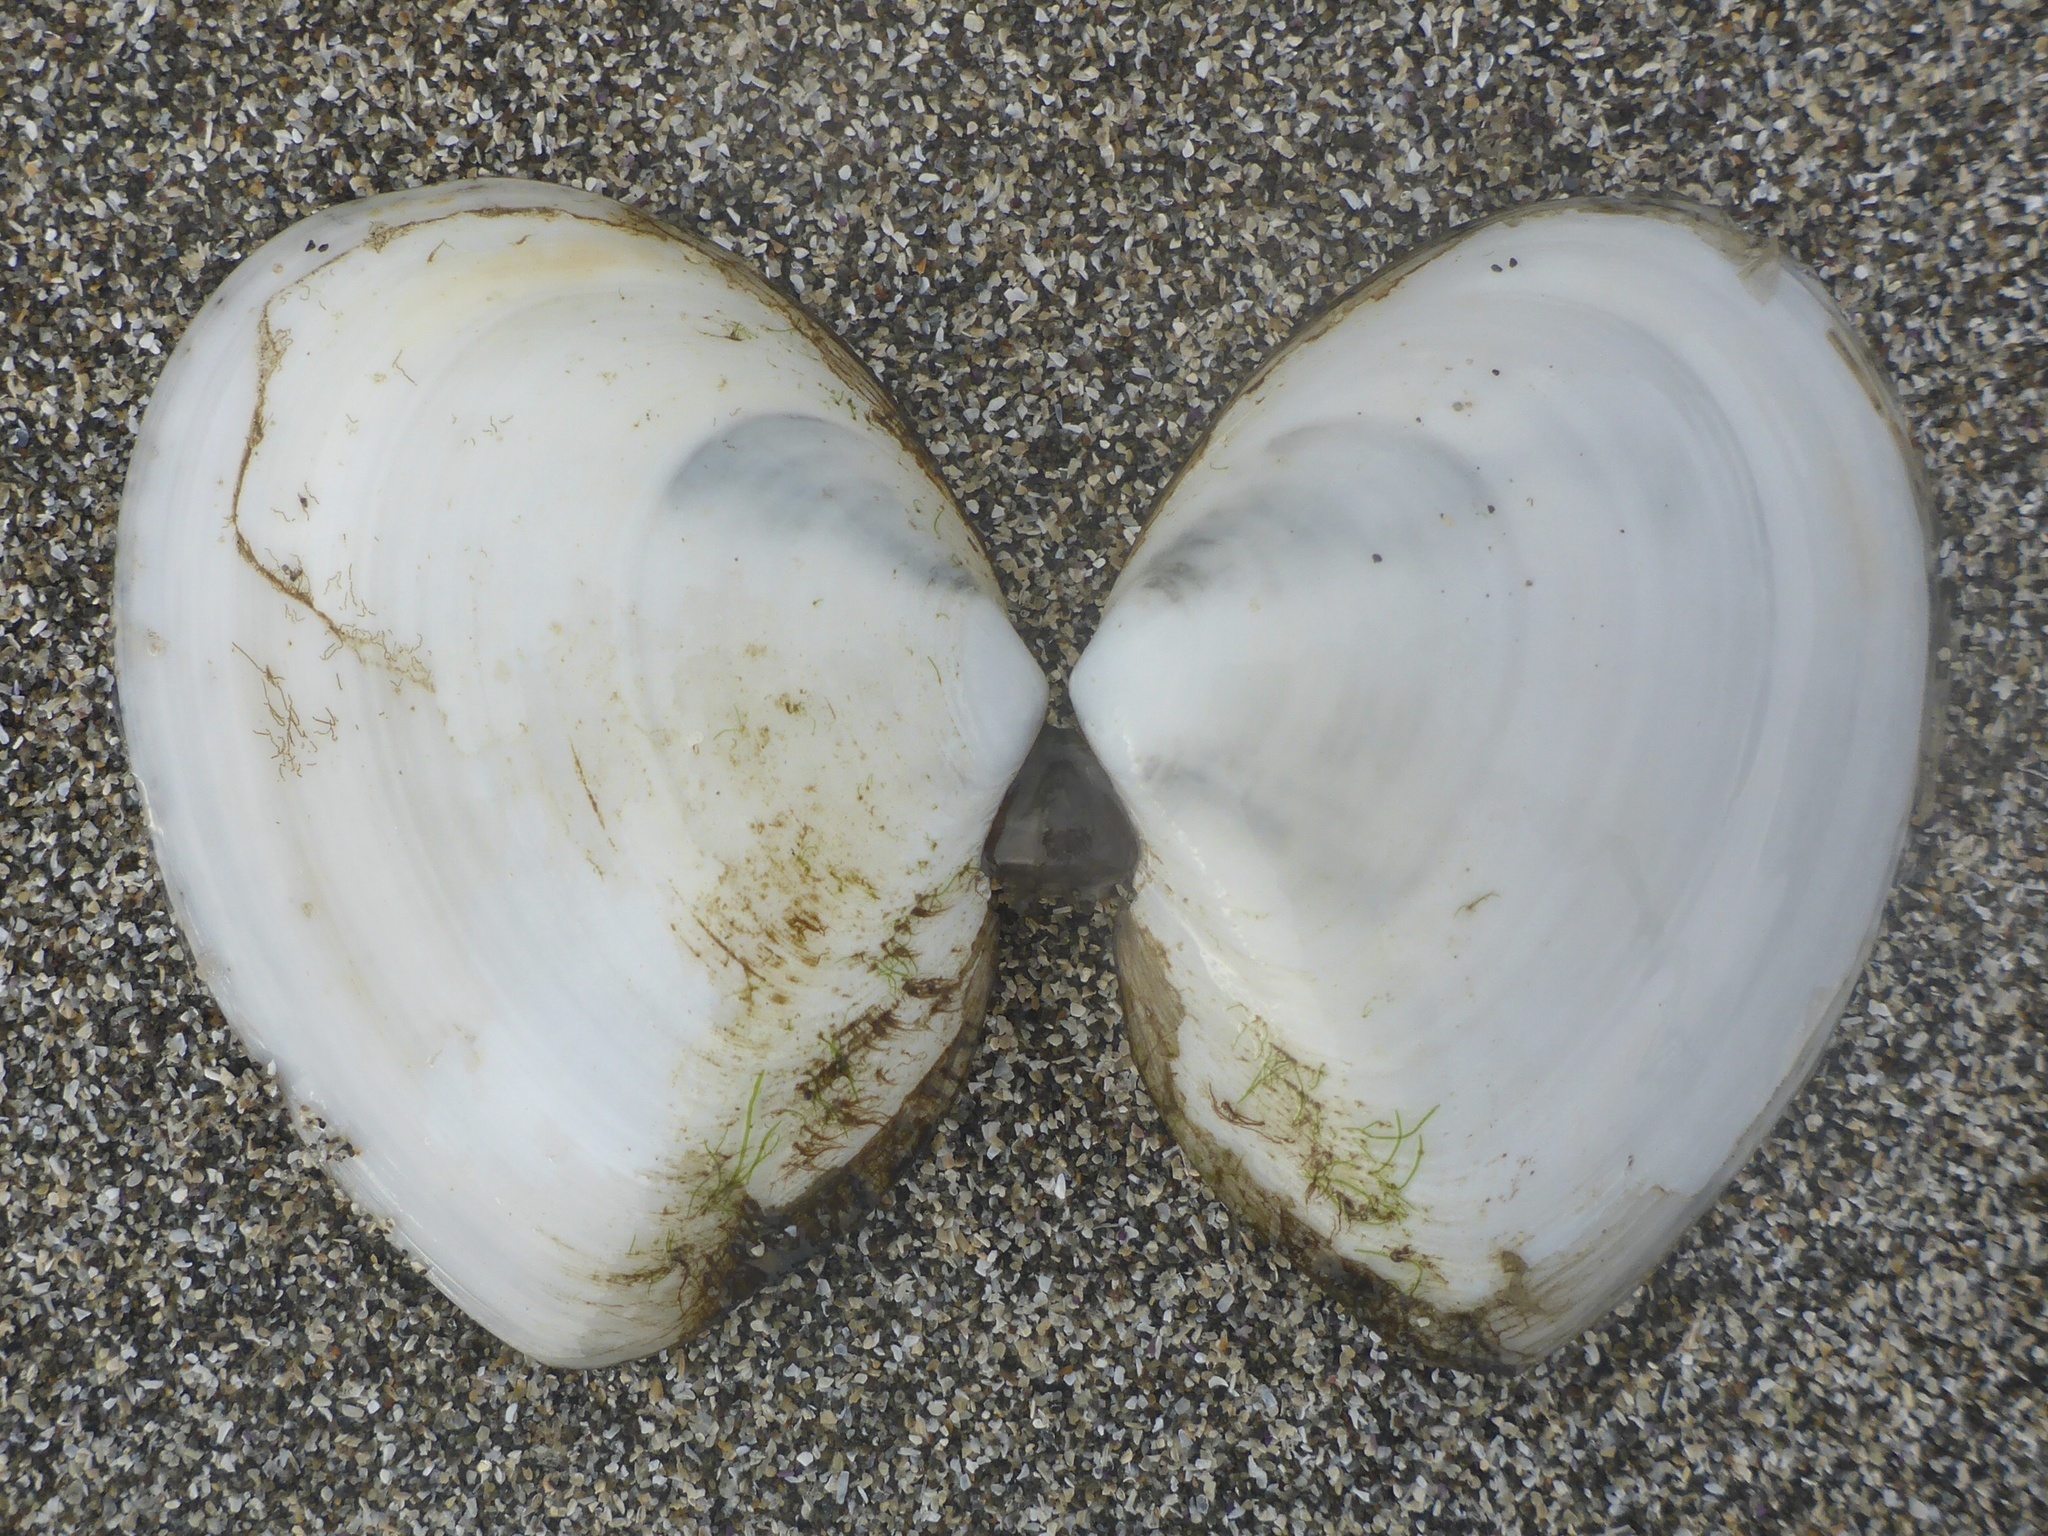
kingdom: Animalia
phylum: Mollusca
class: Bivalvia
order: Cardiida
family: Tellinidae
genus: Rexithaerus
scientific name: Rexithaerus secta
